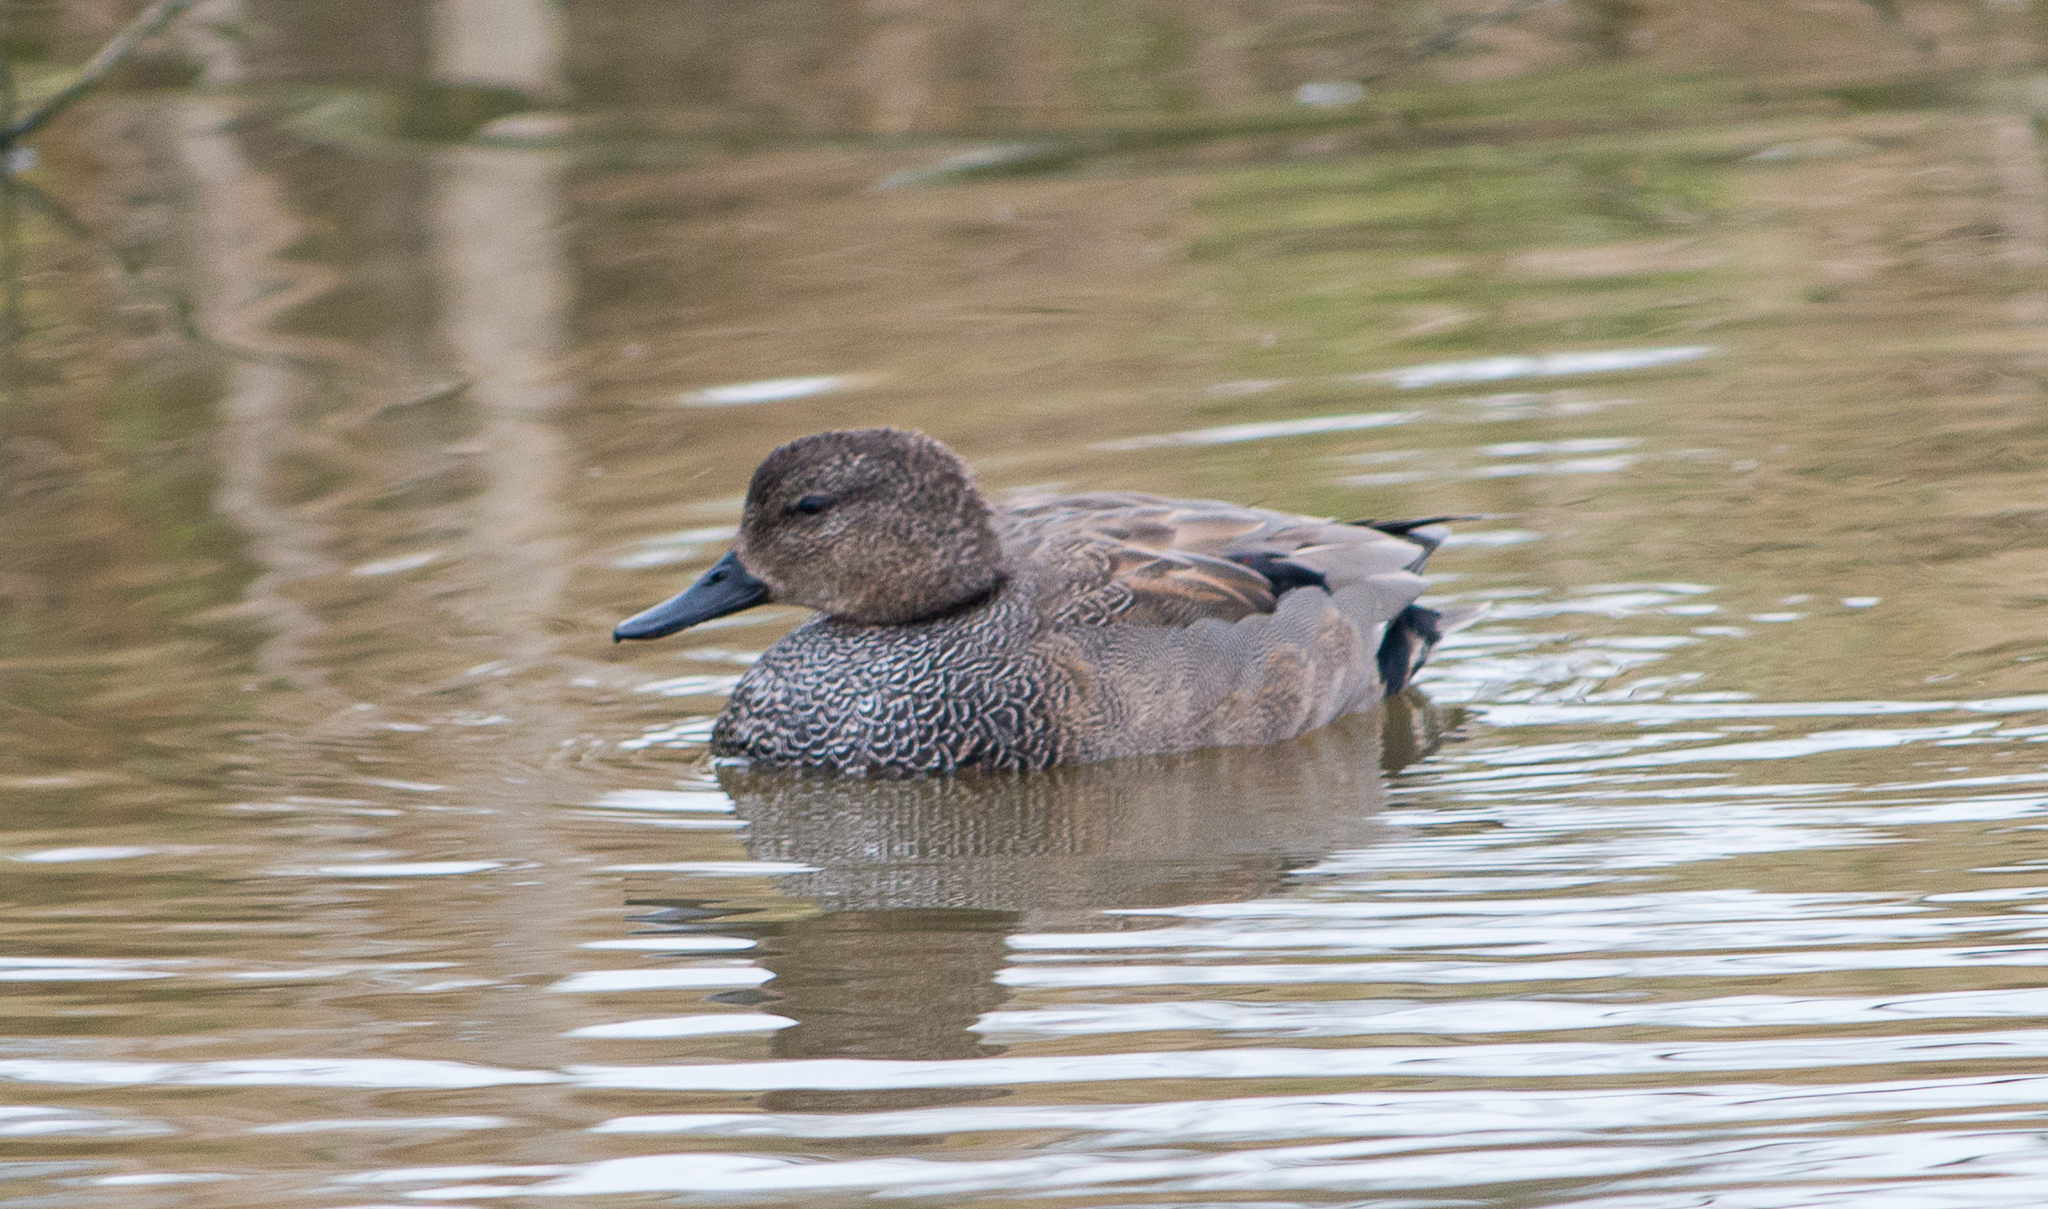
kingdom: Animalia
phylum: Chordata
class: Aves
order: Anseriformes
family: Anatidae
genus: Mareca
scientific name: Mareca strepera
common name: Gadwall
